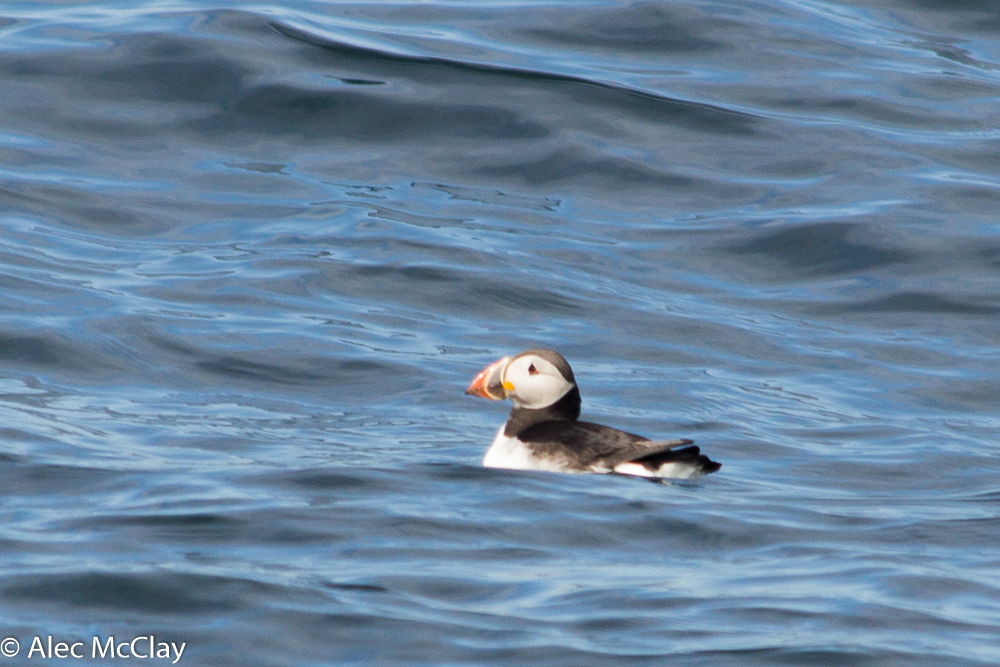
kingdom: Animalia
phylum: Chordata
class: Aves
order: Charadriiformes
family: Alcidae
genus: Fratercula
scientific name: Fratercula arctica
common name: Atlantic puffin
